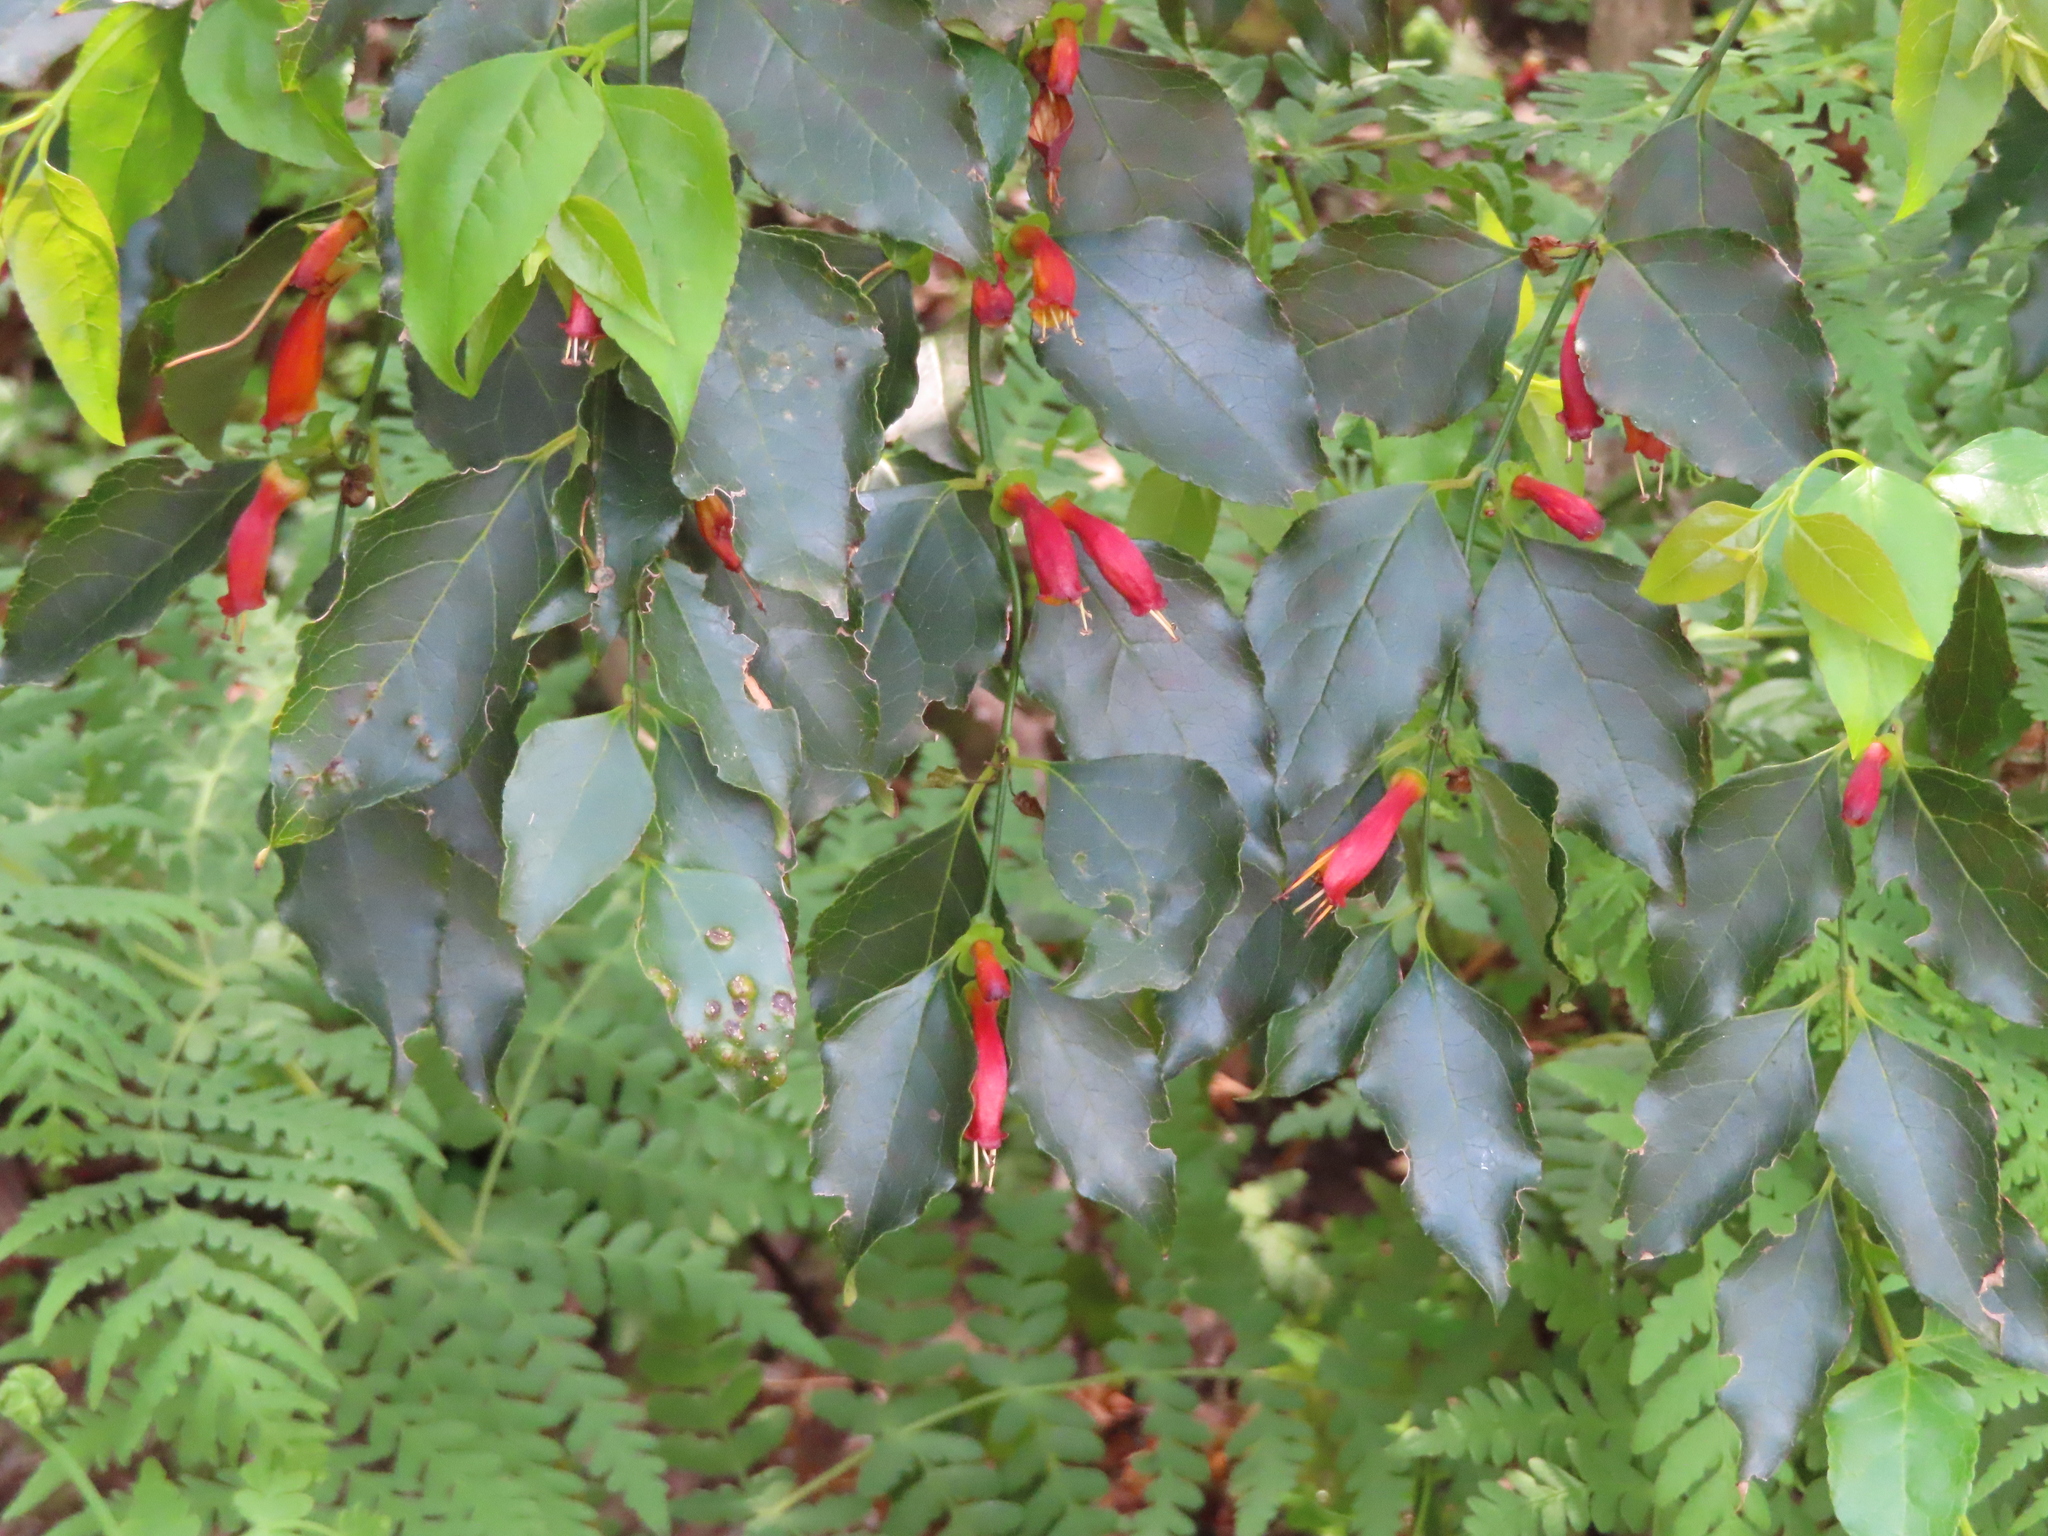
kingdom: Plantae
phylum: Tracheophyta
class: Magnoliopsida
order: Lamiales
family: Stilbaceae
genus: Halleria
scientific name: Halleria lucida
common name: Tree fuschia
